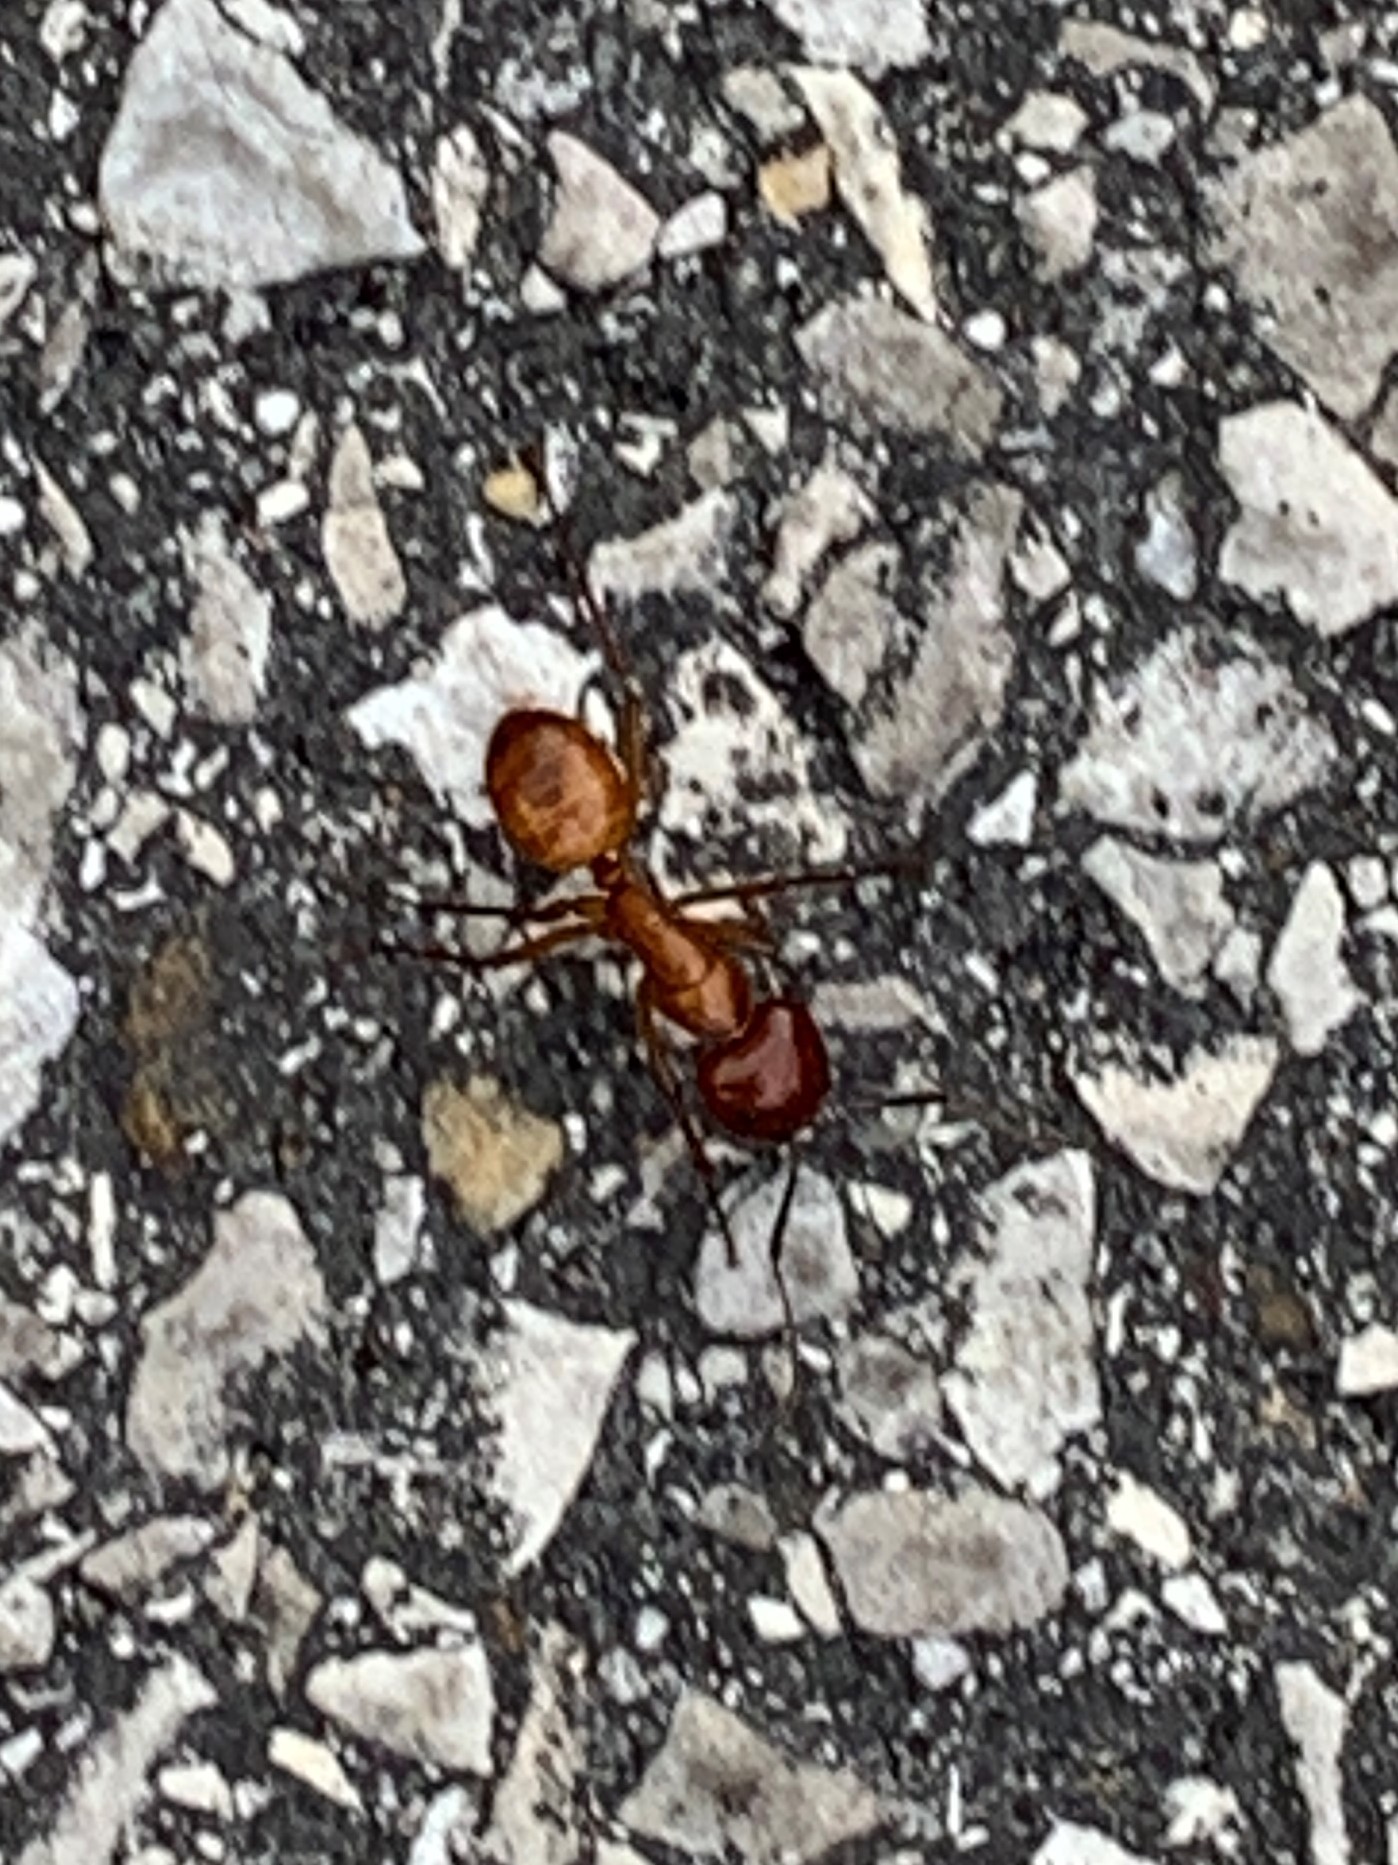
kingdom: Animalia
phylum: Arthropoda
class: Insecta
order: Hymenoptera
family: Formicidae
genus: Camponotus
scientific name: Camponotus castaneus
